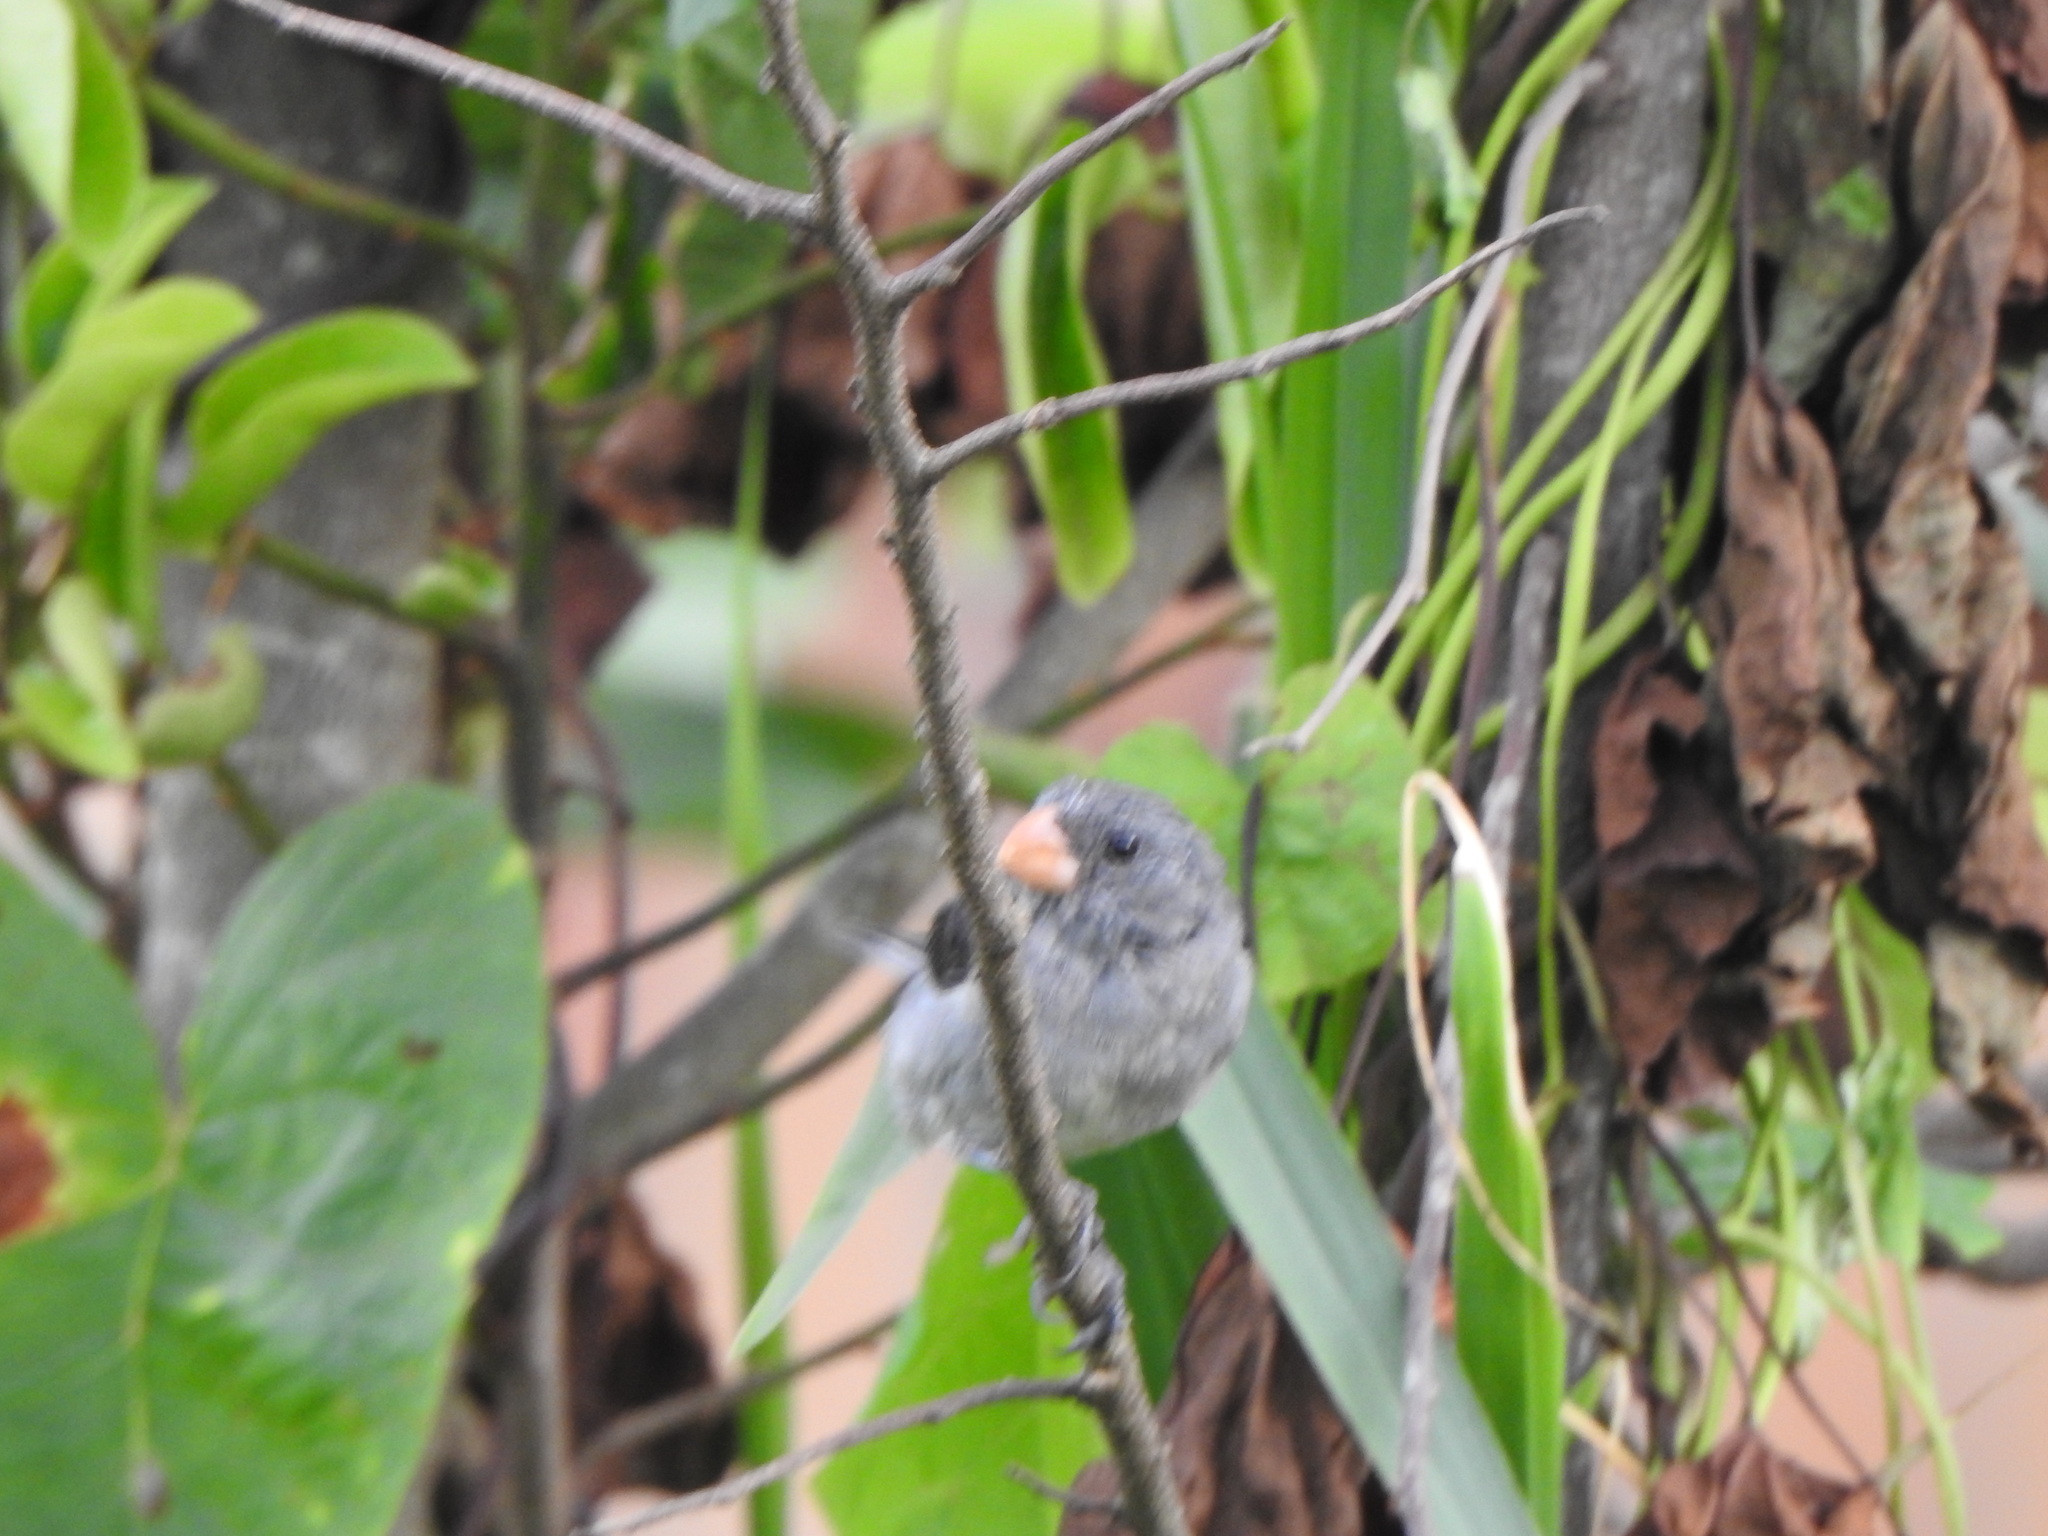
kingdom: Animalia
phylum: Chordata
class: Aves
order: Passeriformes
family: Thraupidae
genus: Sporophila
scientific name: Sporophila intermedia
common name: Grey seedeater
